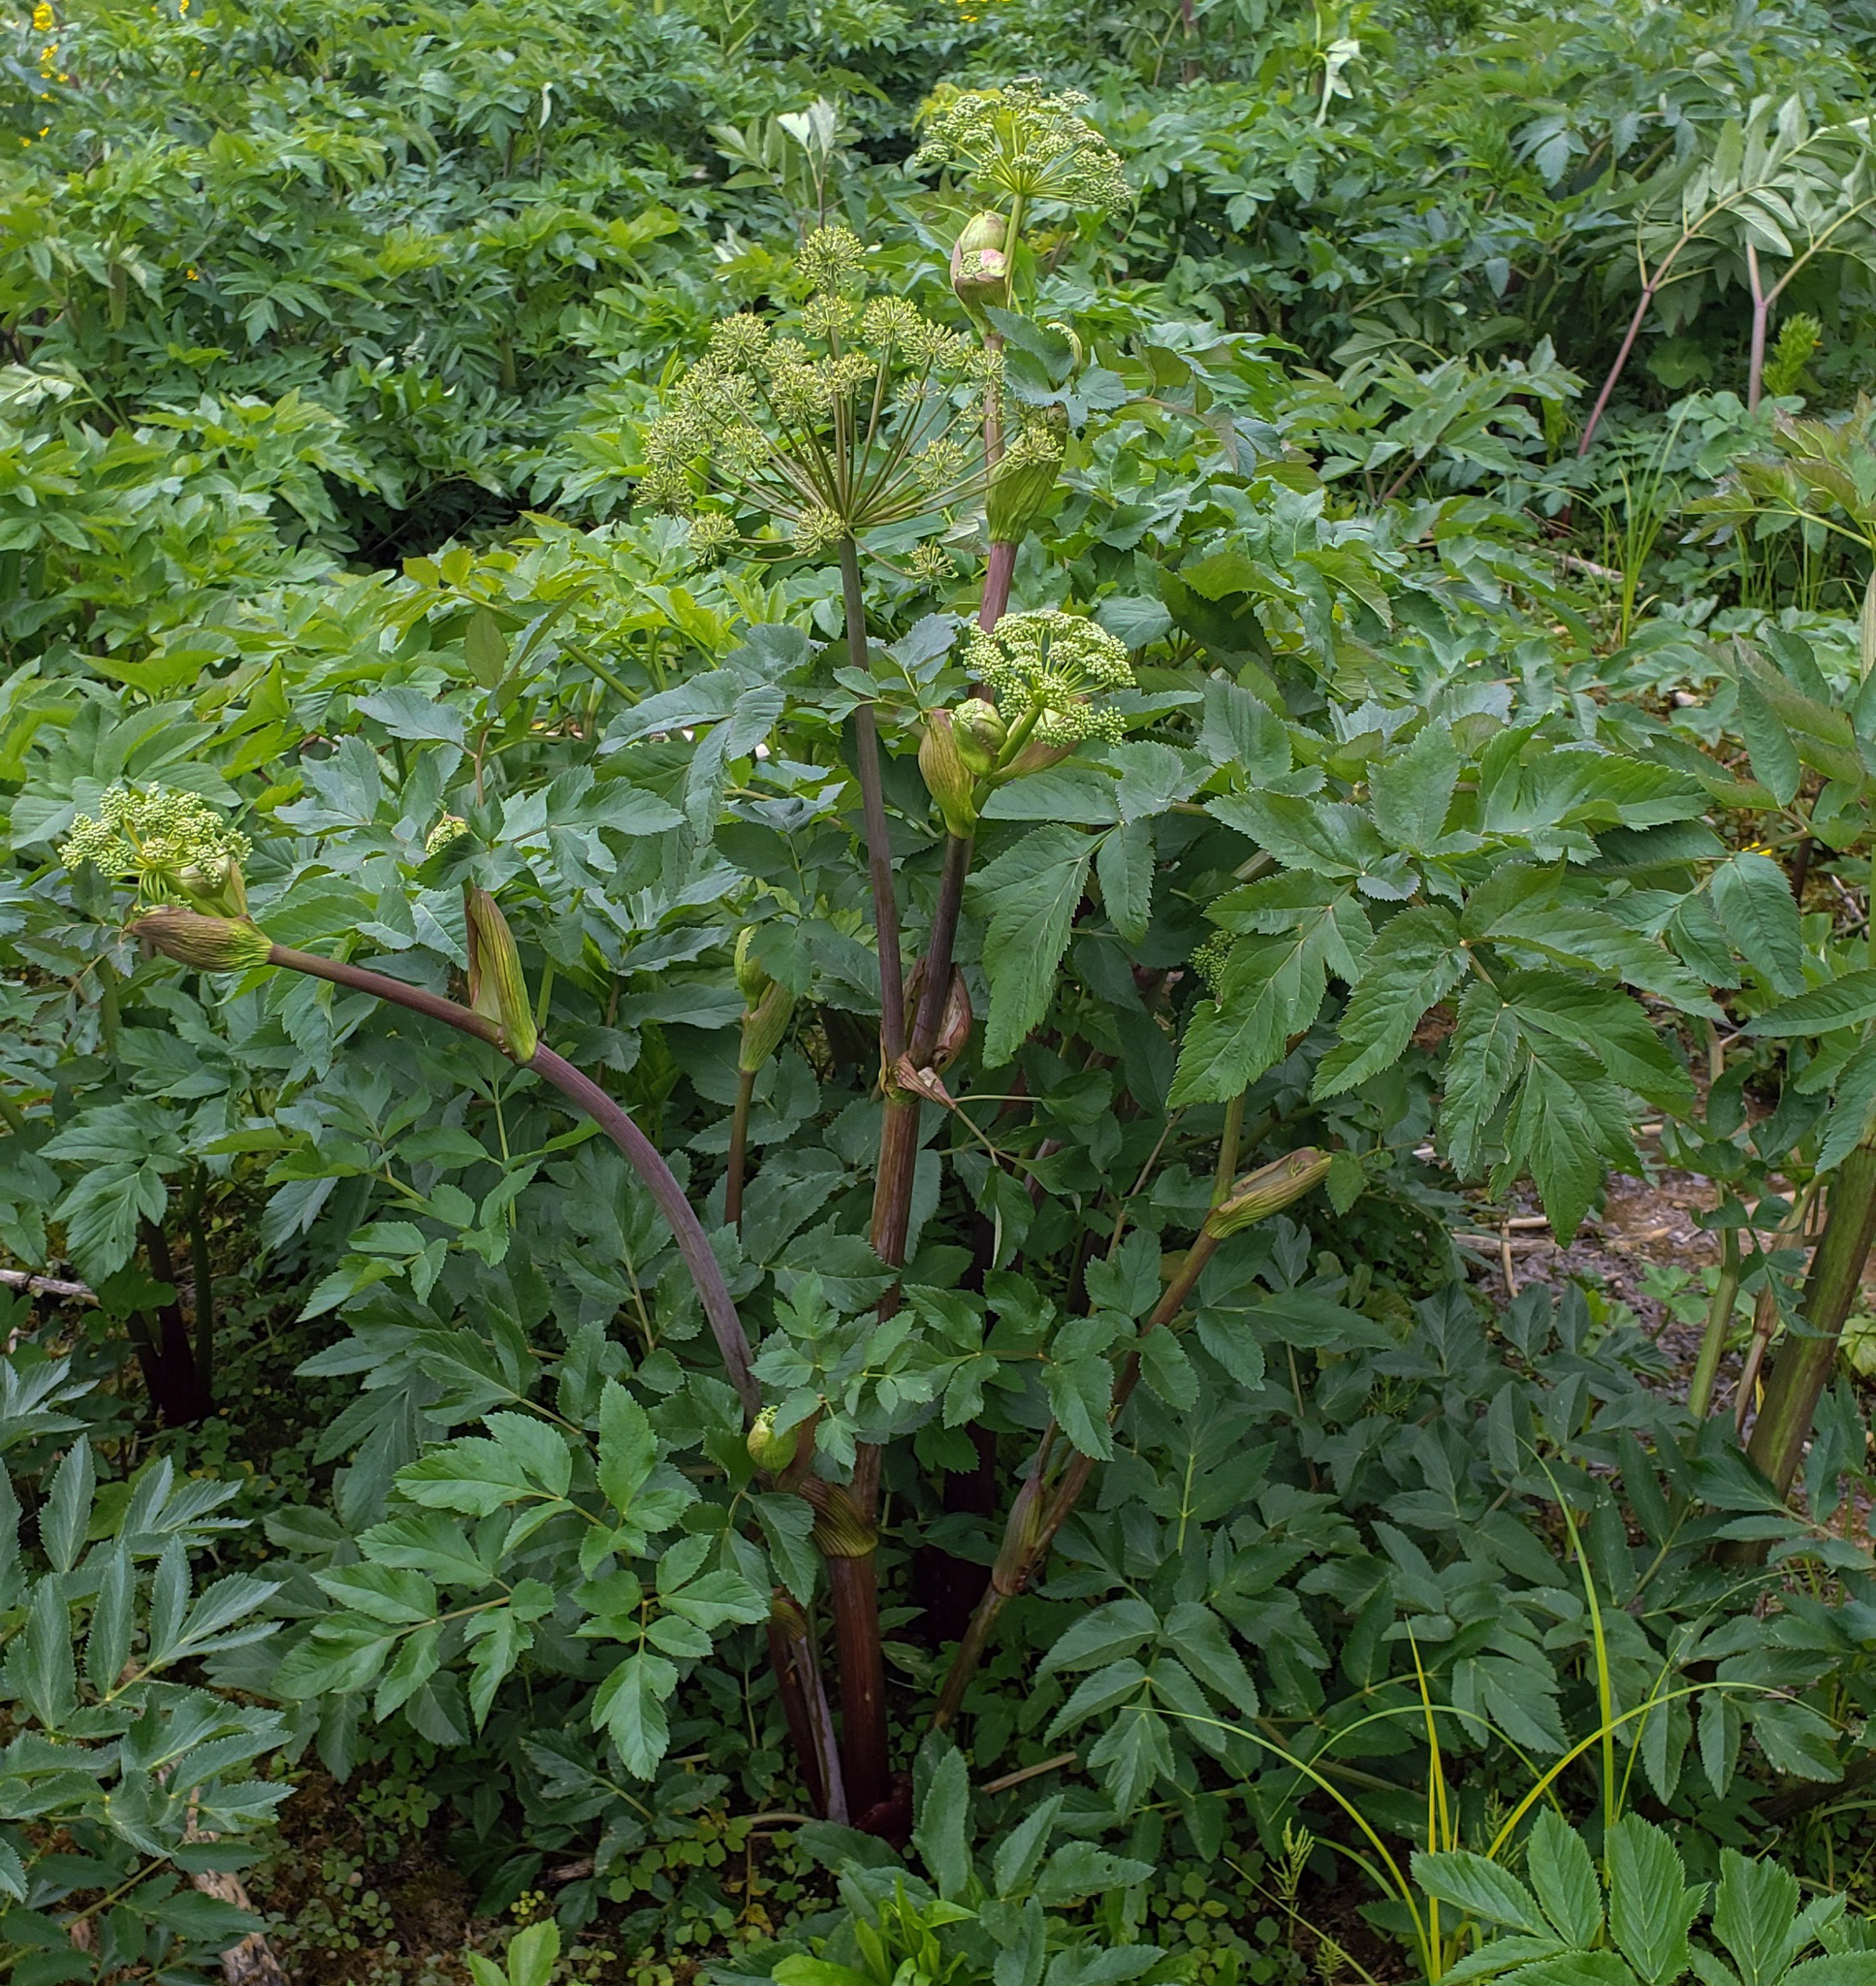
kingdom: Plantae
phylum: Tracheophyta
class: Magnoliopsida
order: Apiales
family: Apiaceae
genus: Angelica
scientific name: Angelica atropurpurea
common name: Great angelica
